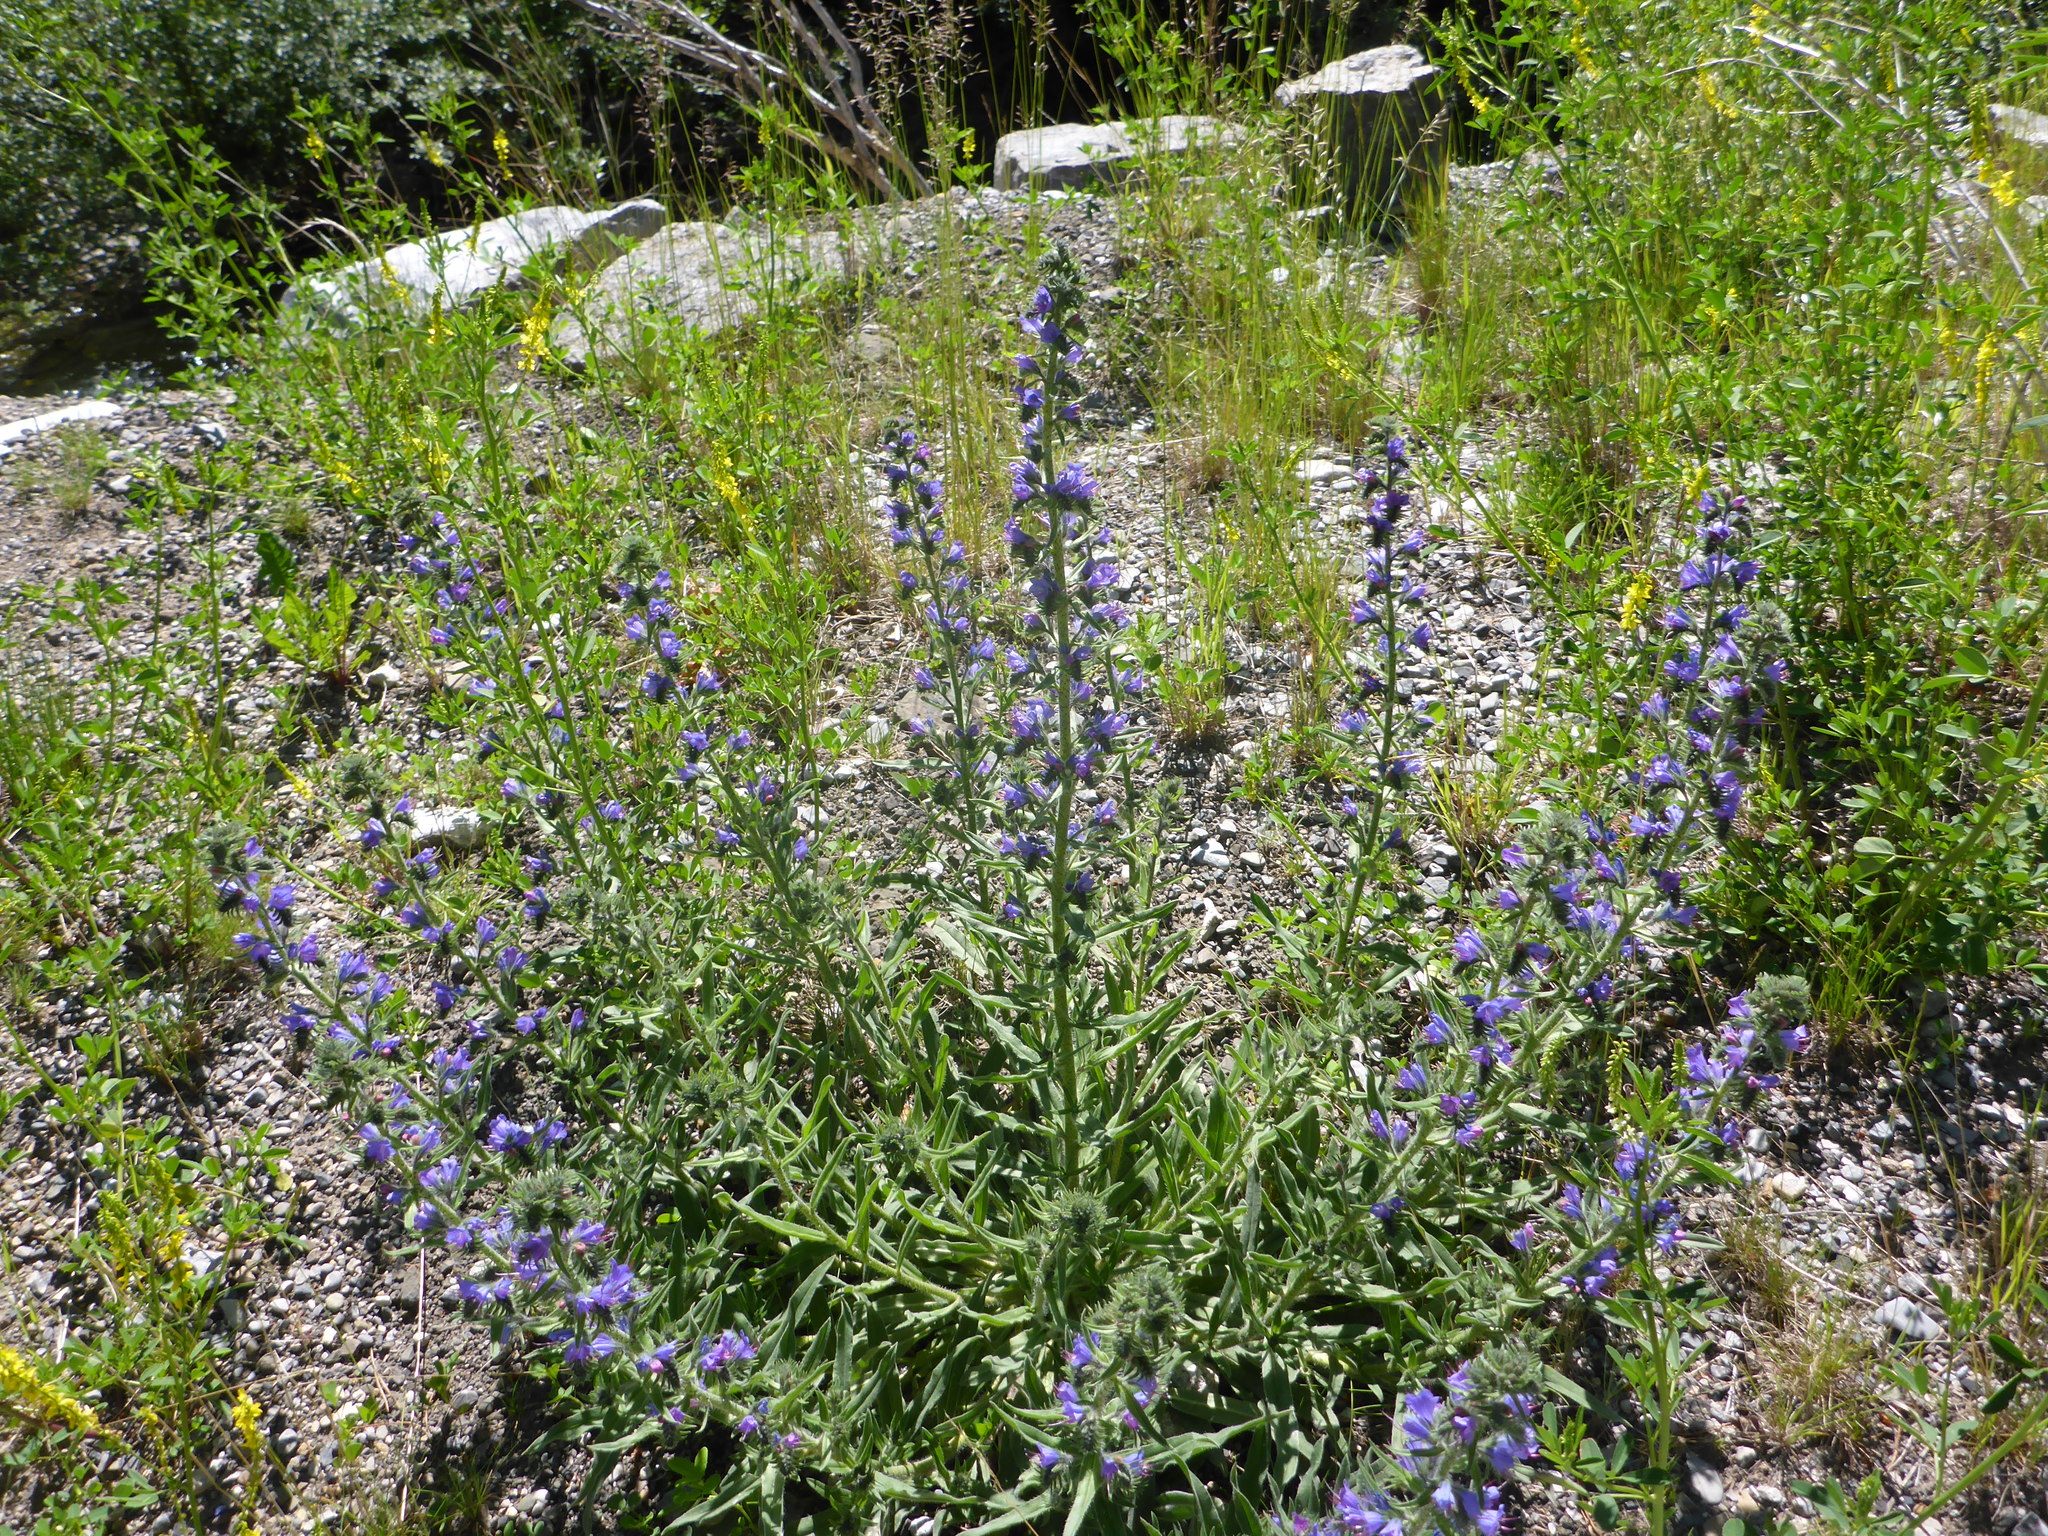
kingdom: Plantae
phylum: Tracheophyta
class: Magnoliopsida
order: Boraginales
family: Boraginaceae
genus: Echium
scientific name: Echium vulgare
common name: Common viper's bugloss
